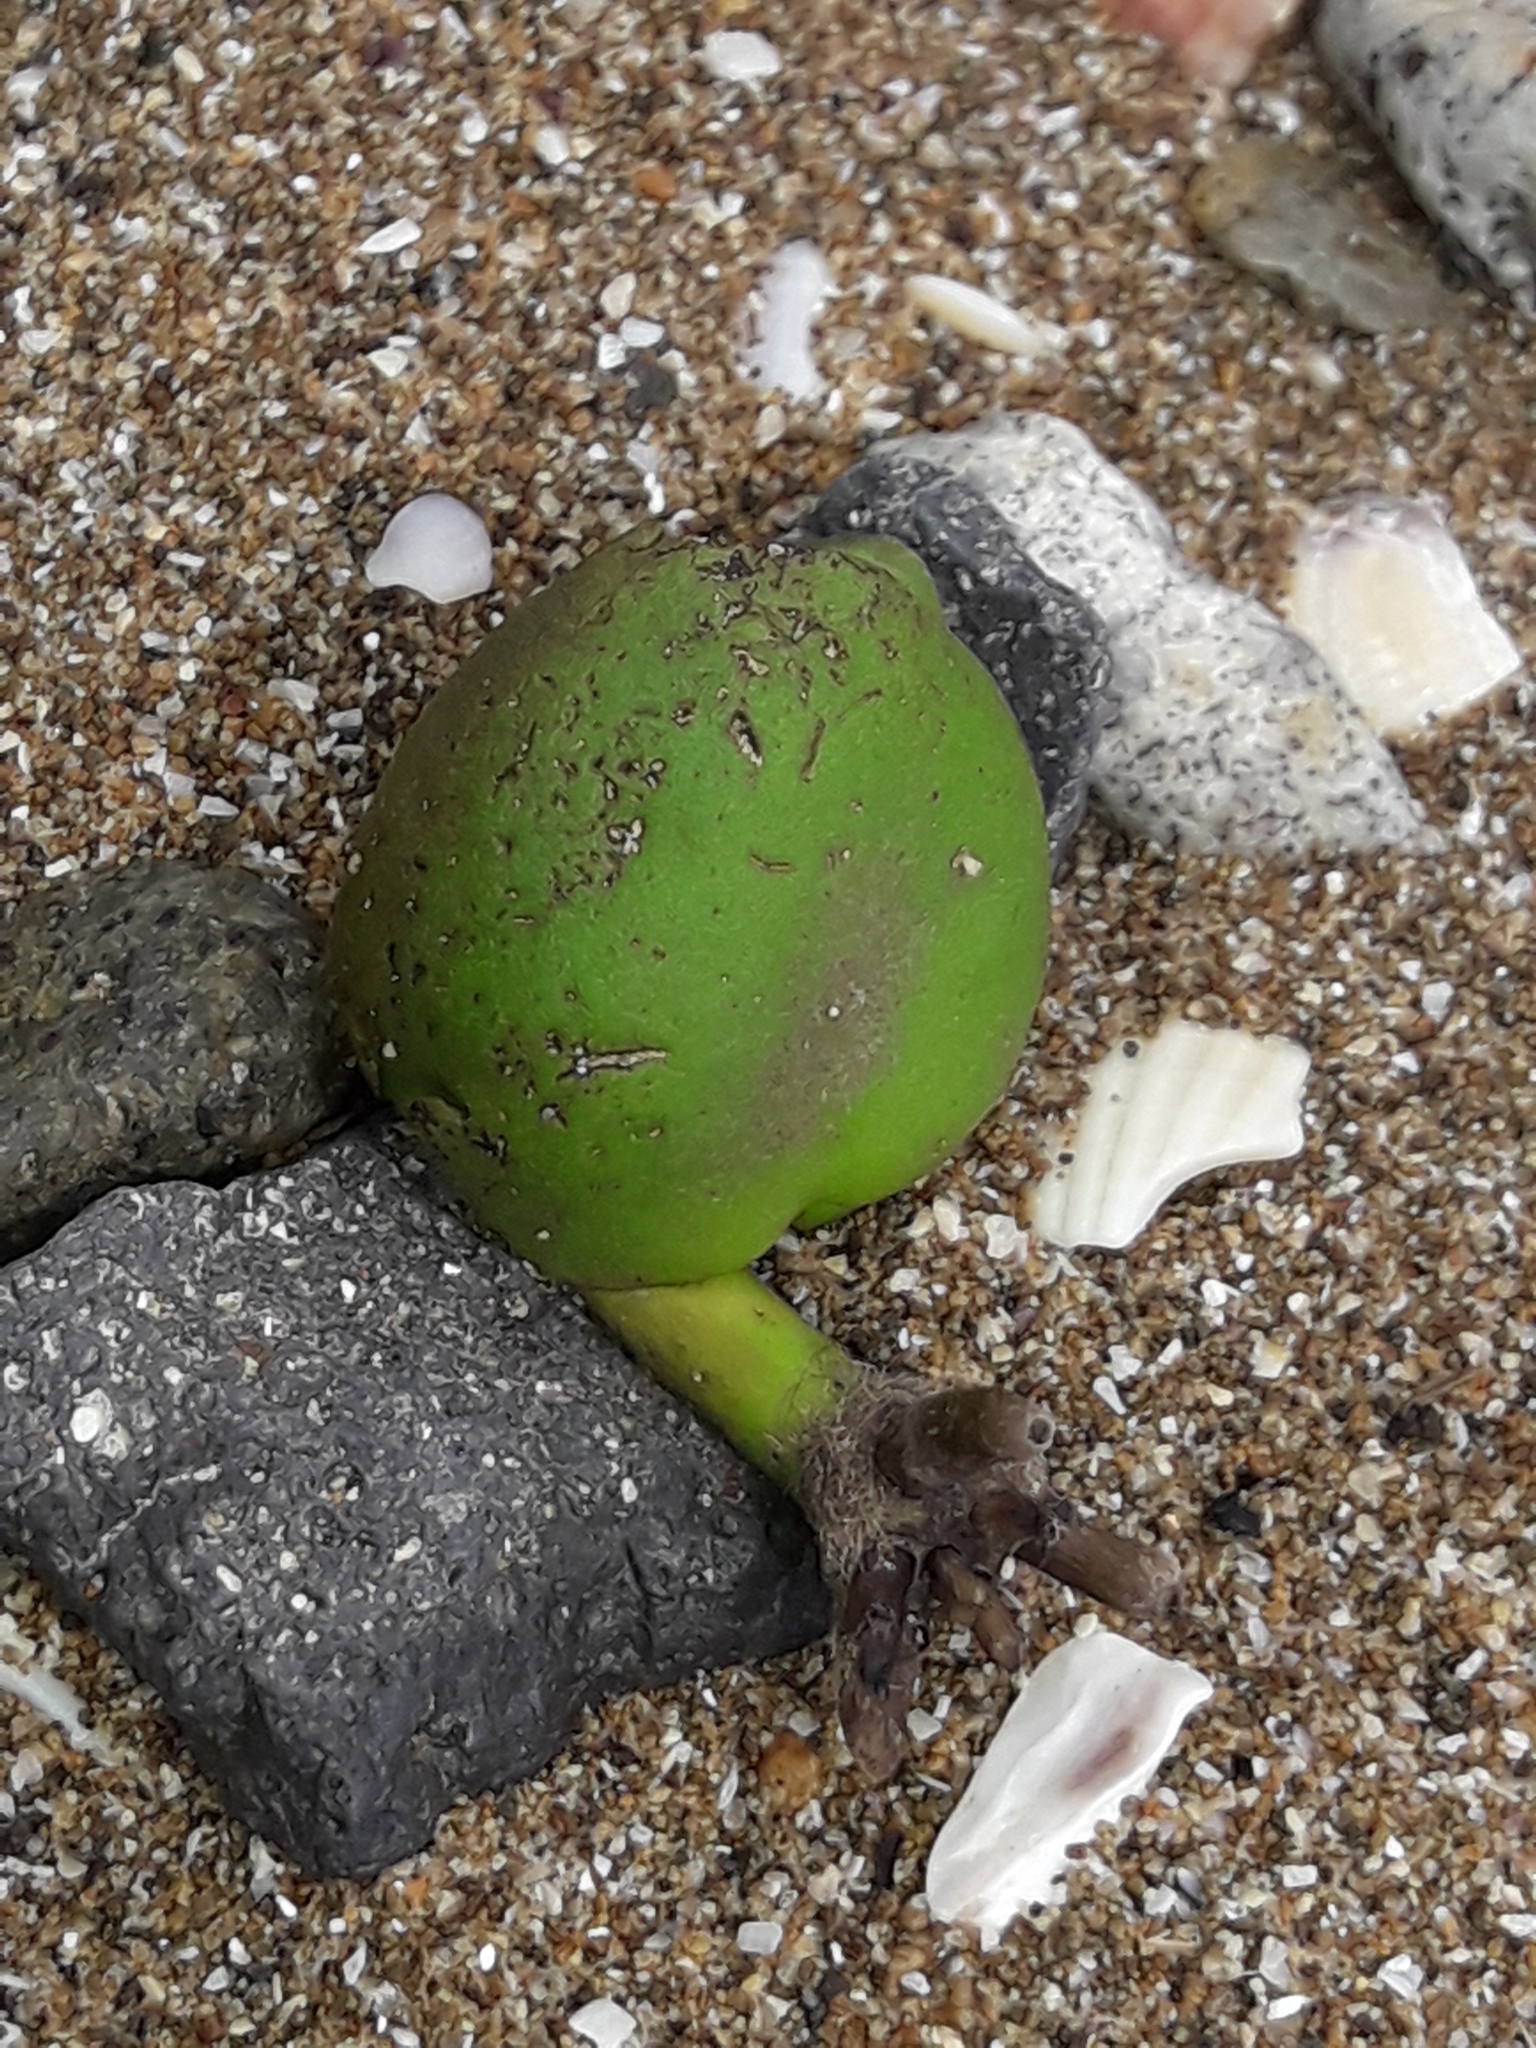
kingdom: Plantae
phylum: Tracheophyta
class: Magnoliopsida
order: Lamiales
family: Acanthaceae
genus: Avicennia
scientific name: Avicennia marina
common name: Gray mangrove
